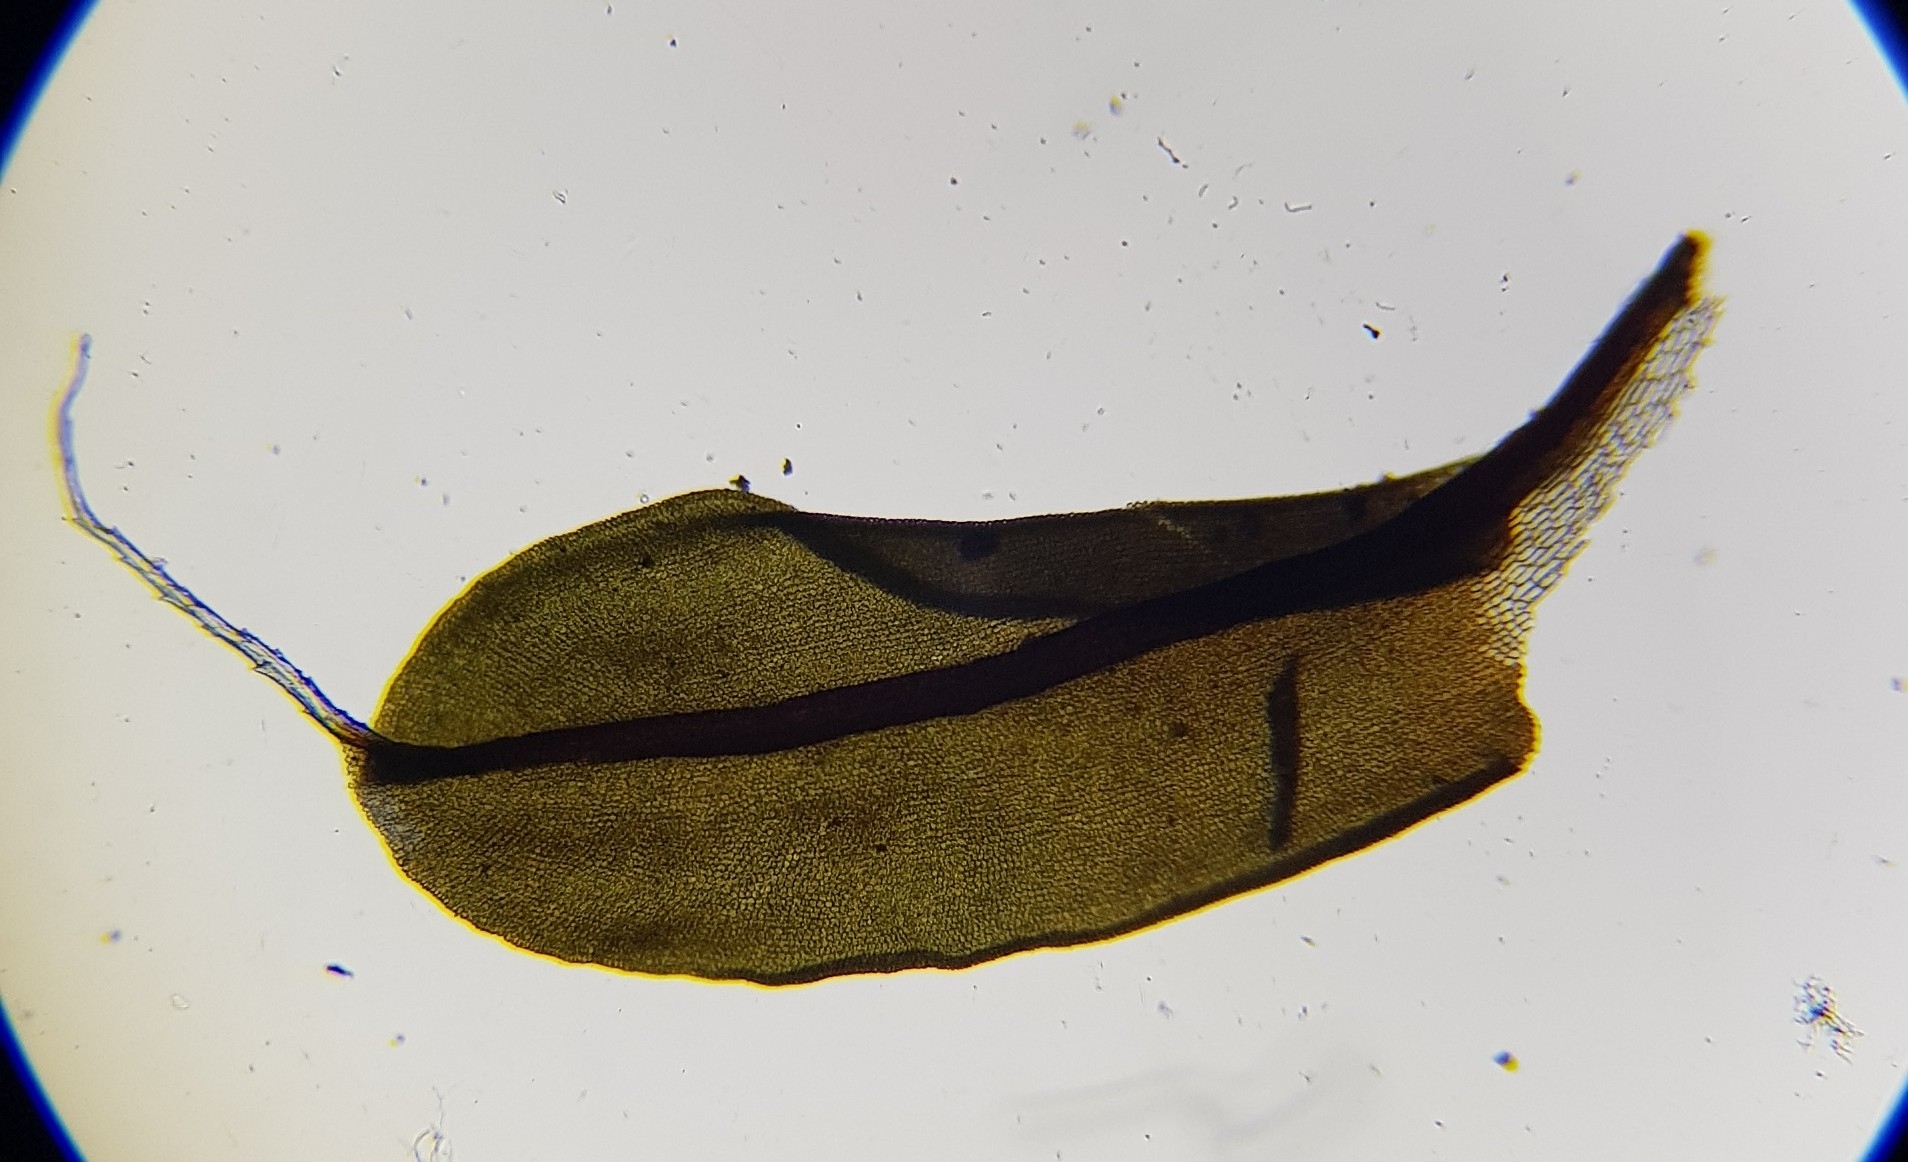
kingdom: Plantae
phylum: Bryophyta
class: Bryopsida
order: Pottiales
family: Pottiaceae
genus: Syntrichia
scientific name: Syntrichia ruralis
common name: Sidewalk screw moss
